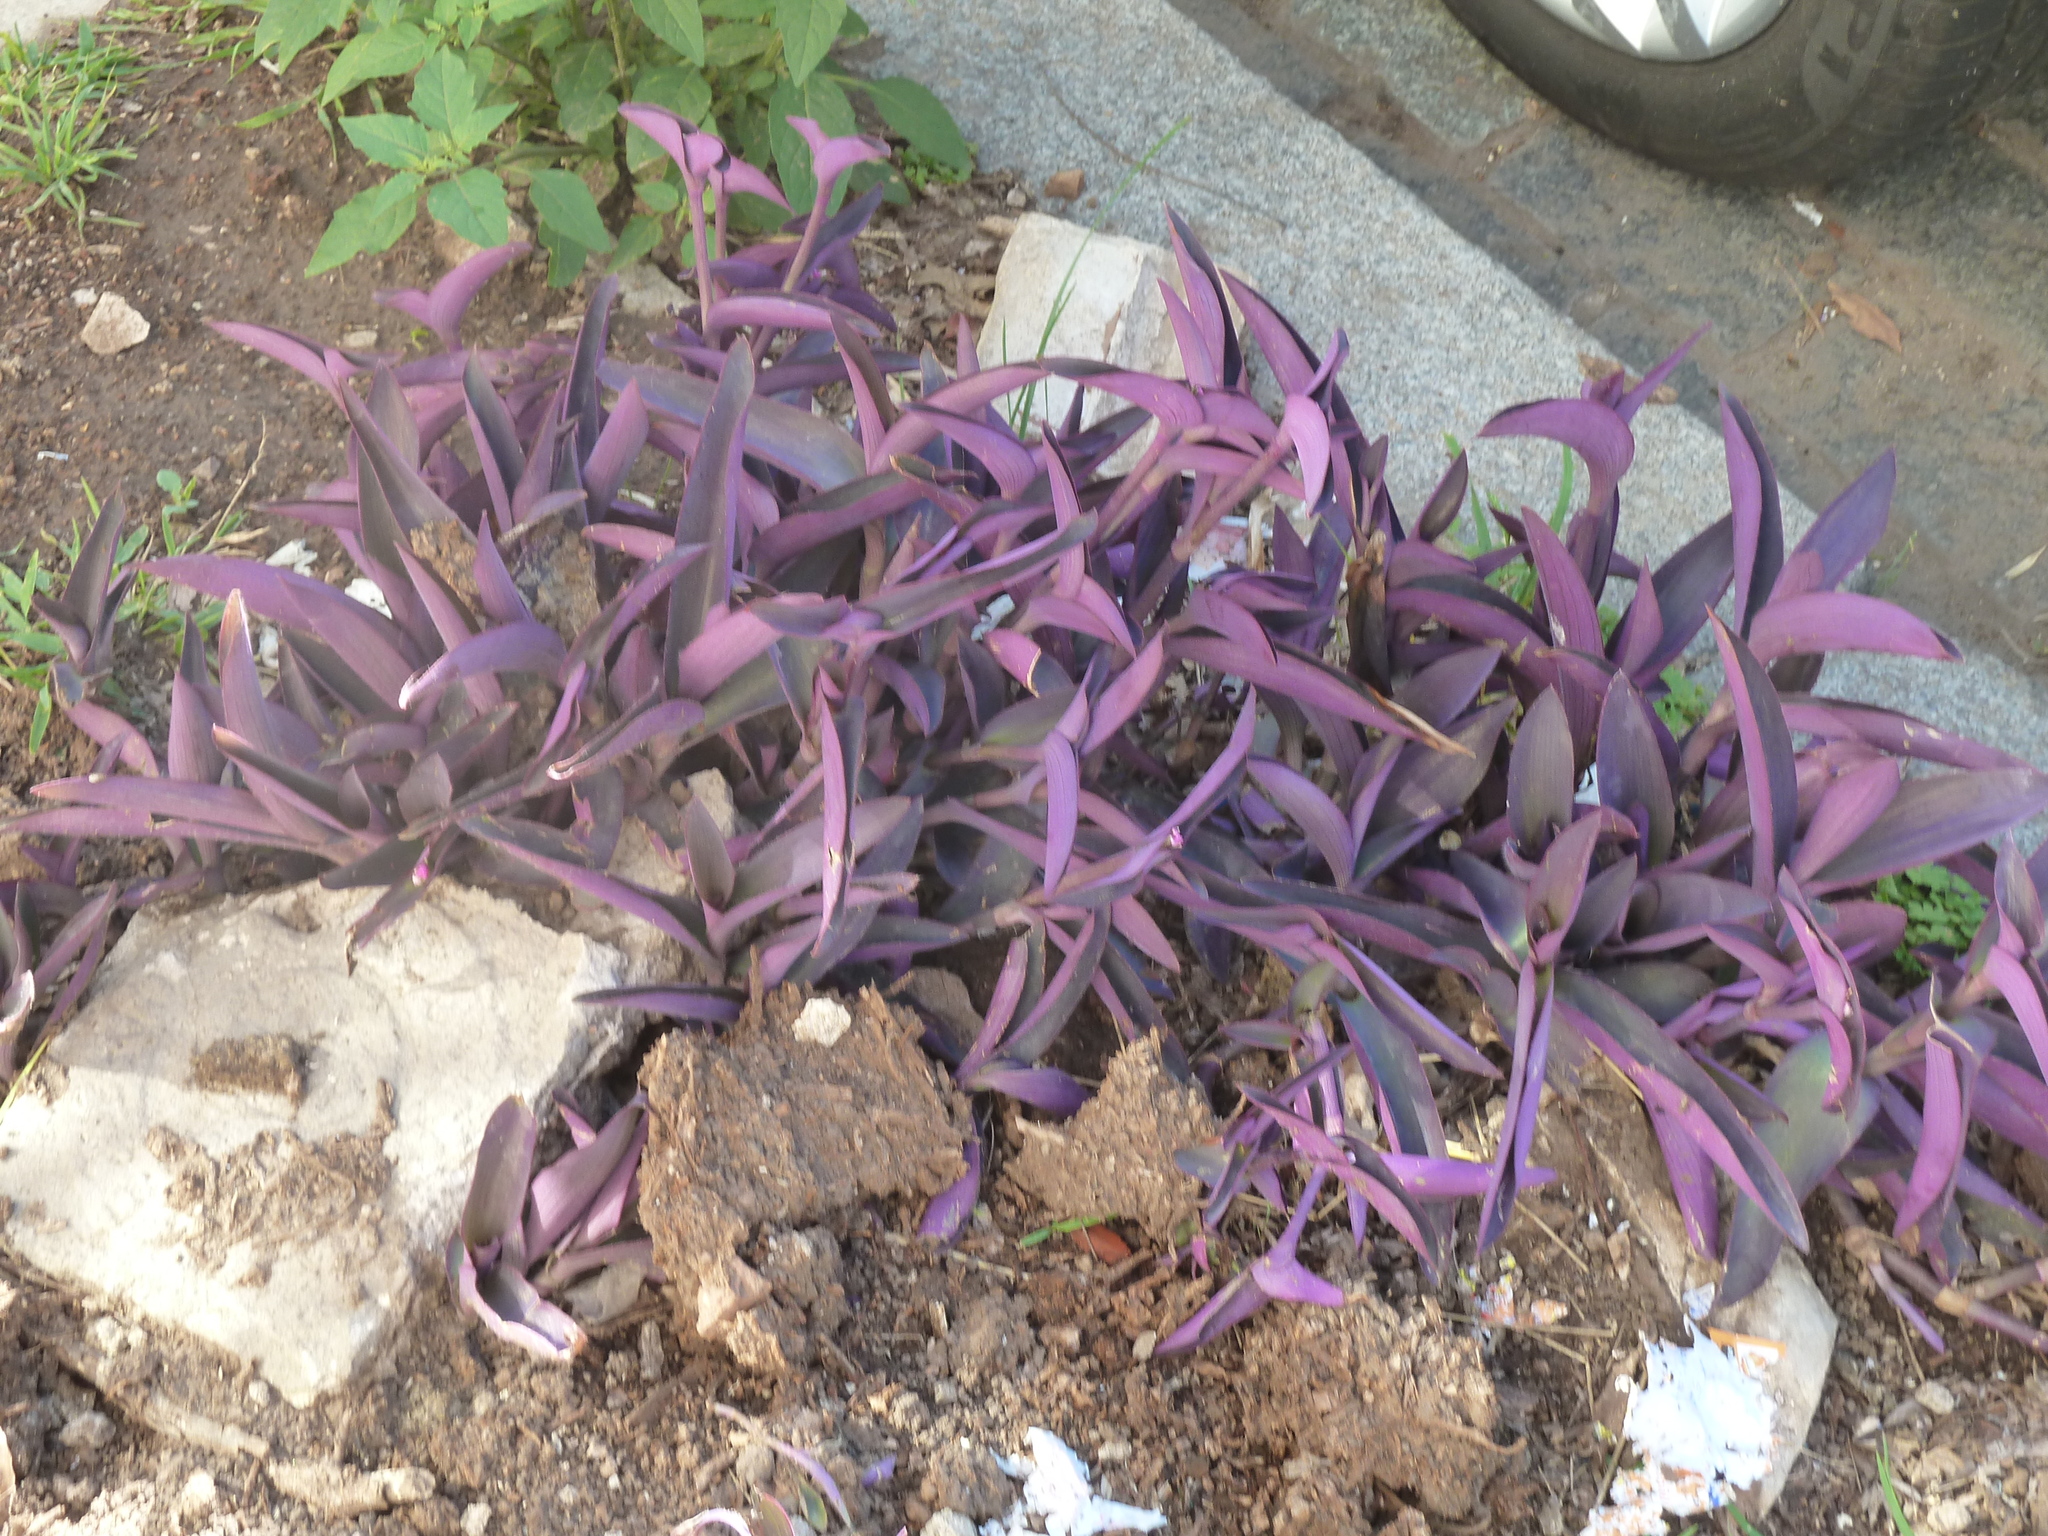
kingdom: Plantae
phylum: Tracheophyta
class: Liliopsida
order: Commelinales
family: Commelinaceae
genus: Tradescantia
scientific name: Tradescantia pallida
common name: Purpleheart
